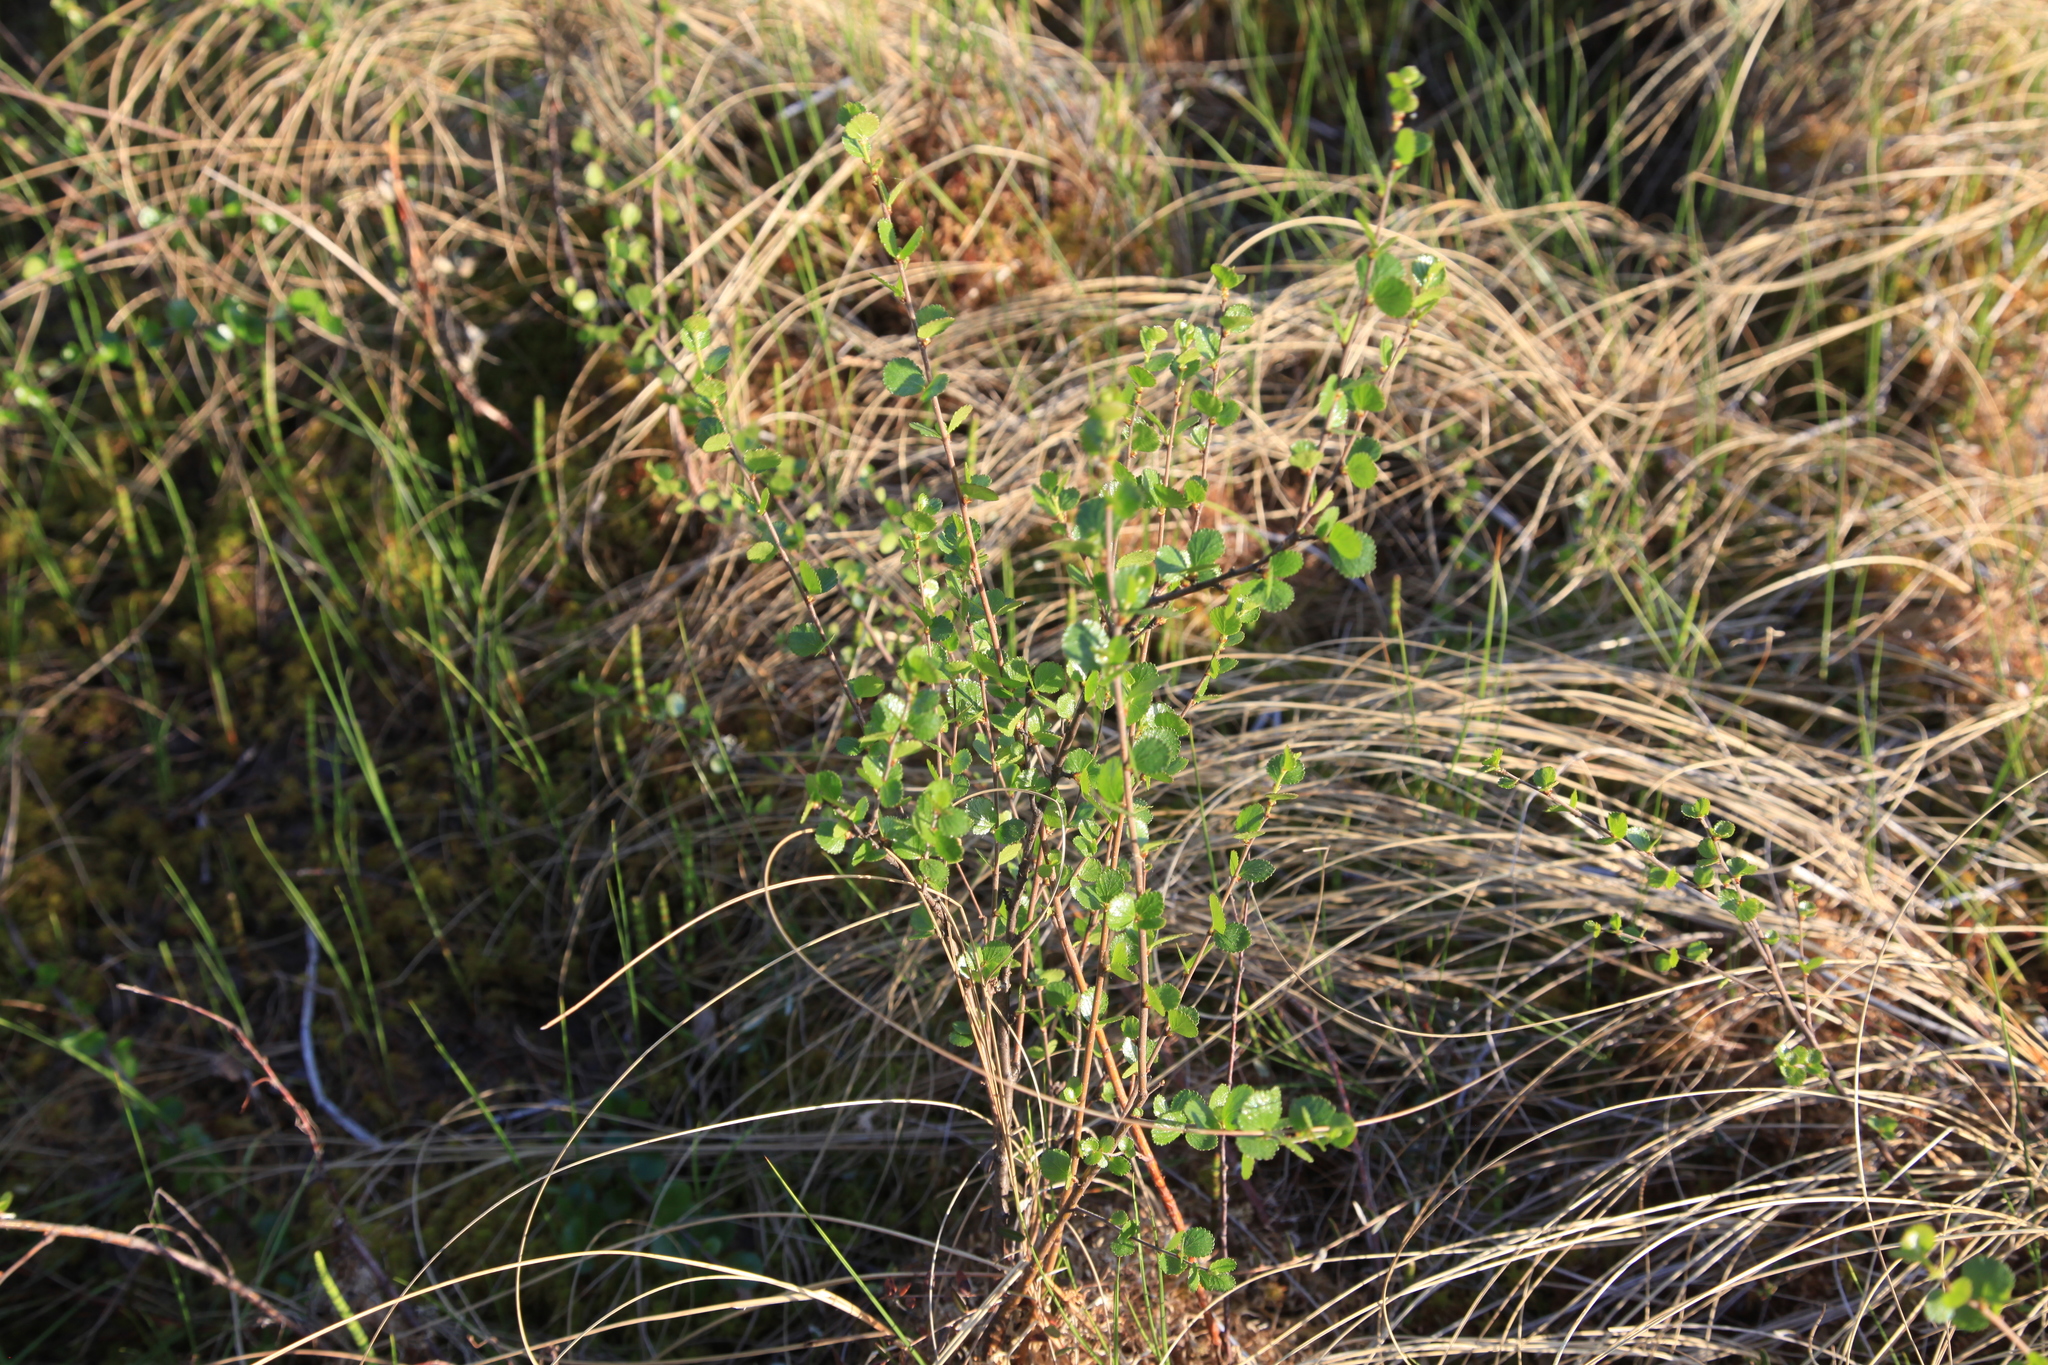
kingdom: Plantae
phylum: Tracheophyta
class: Magnoliopsida
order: Fagales
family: Betulaceae
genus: Betula
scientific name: Betula nana
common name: Arctic dwarf birch
